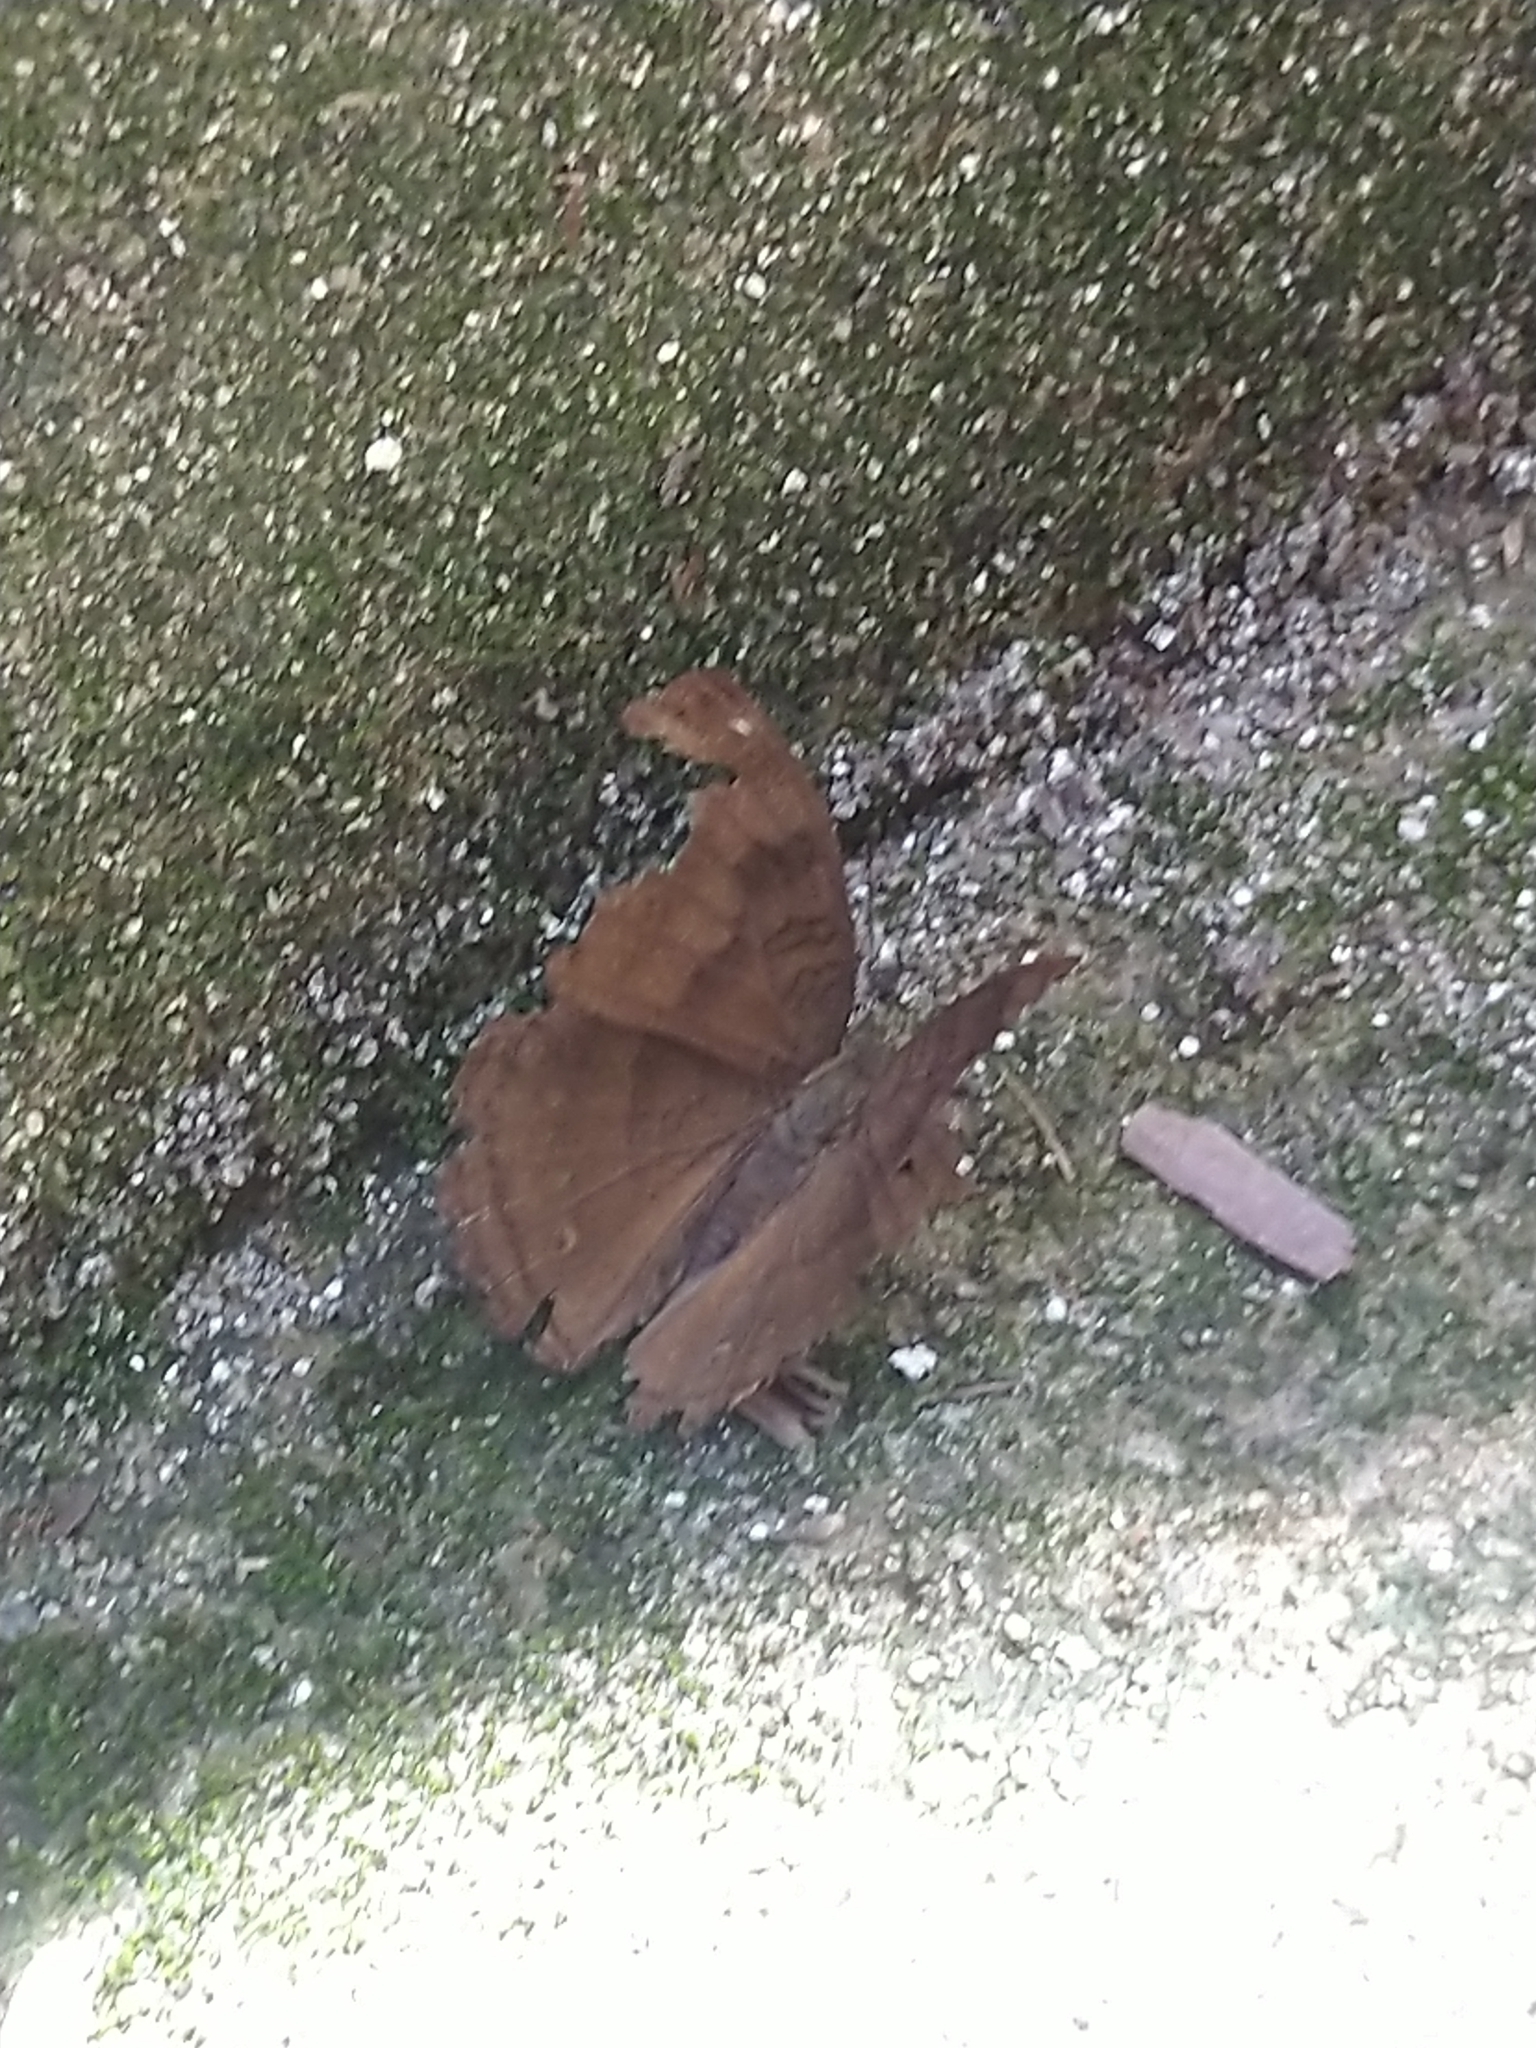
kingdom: Animalia
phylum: Arthropoda
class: Insecta
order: Lepidoptera
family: Nymphalidae
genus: Junonia
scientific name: Junonia iphita
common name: Chocolate pansy
